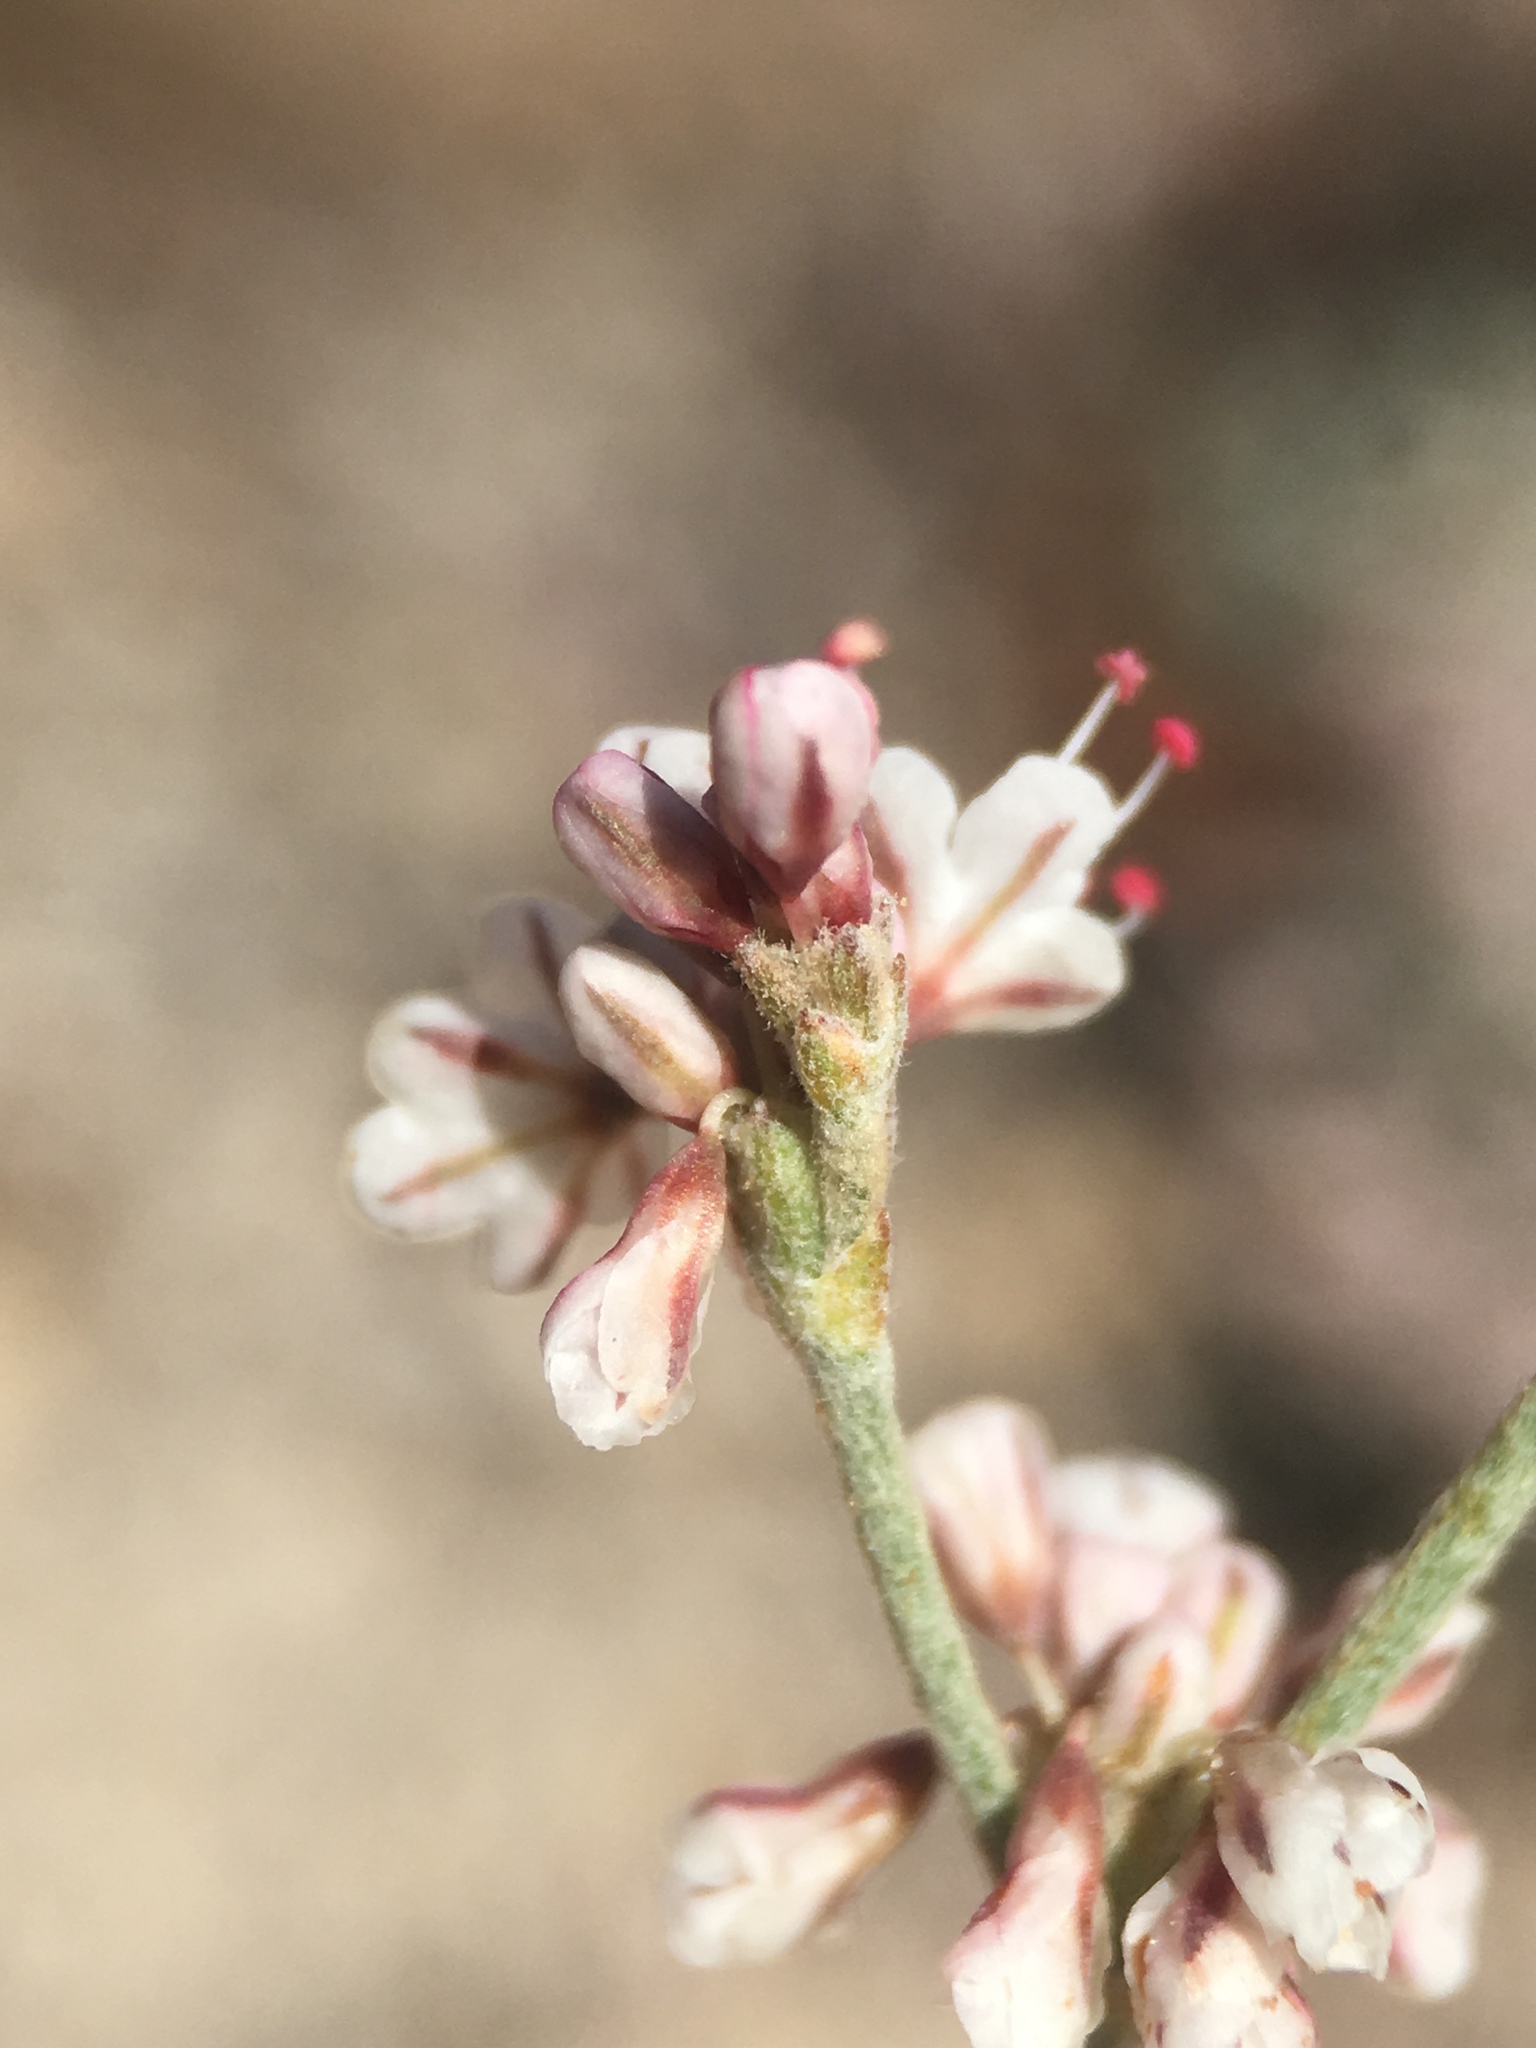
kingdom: Plantae
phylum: Tracheophyta
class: Magnoliopsida
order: Caryophyllales
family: Polygonaceae
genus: Eriogonum
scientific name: Eriogonum wrightii
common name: Bastard-sage
